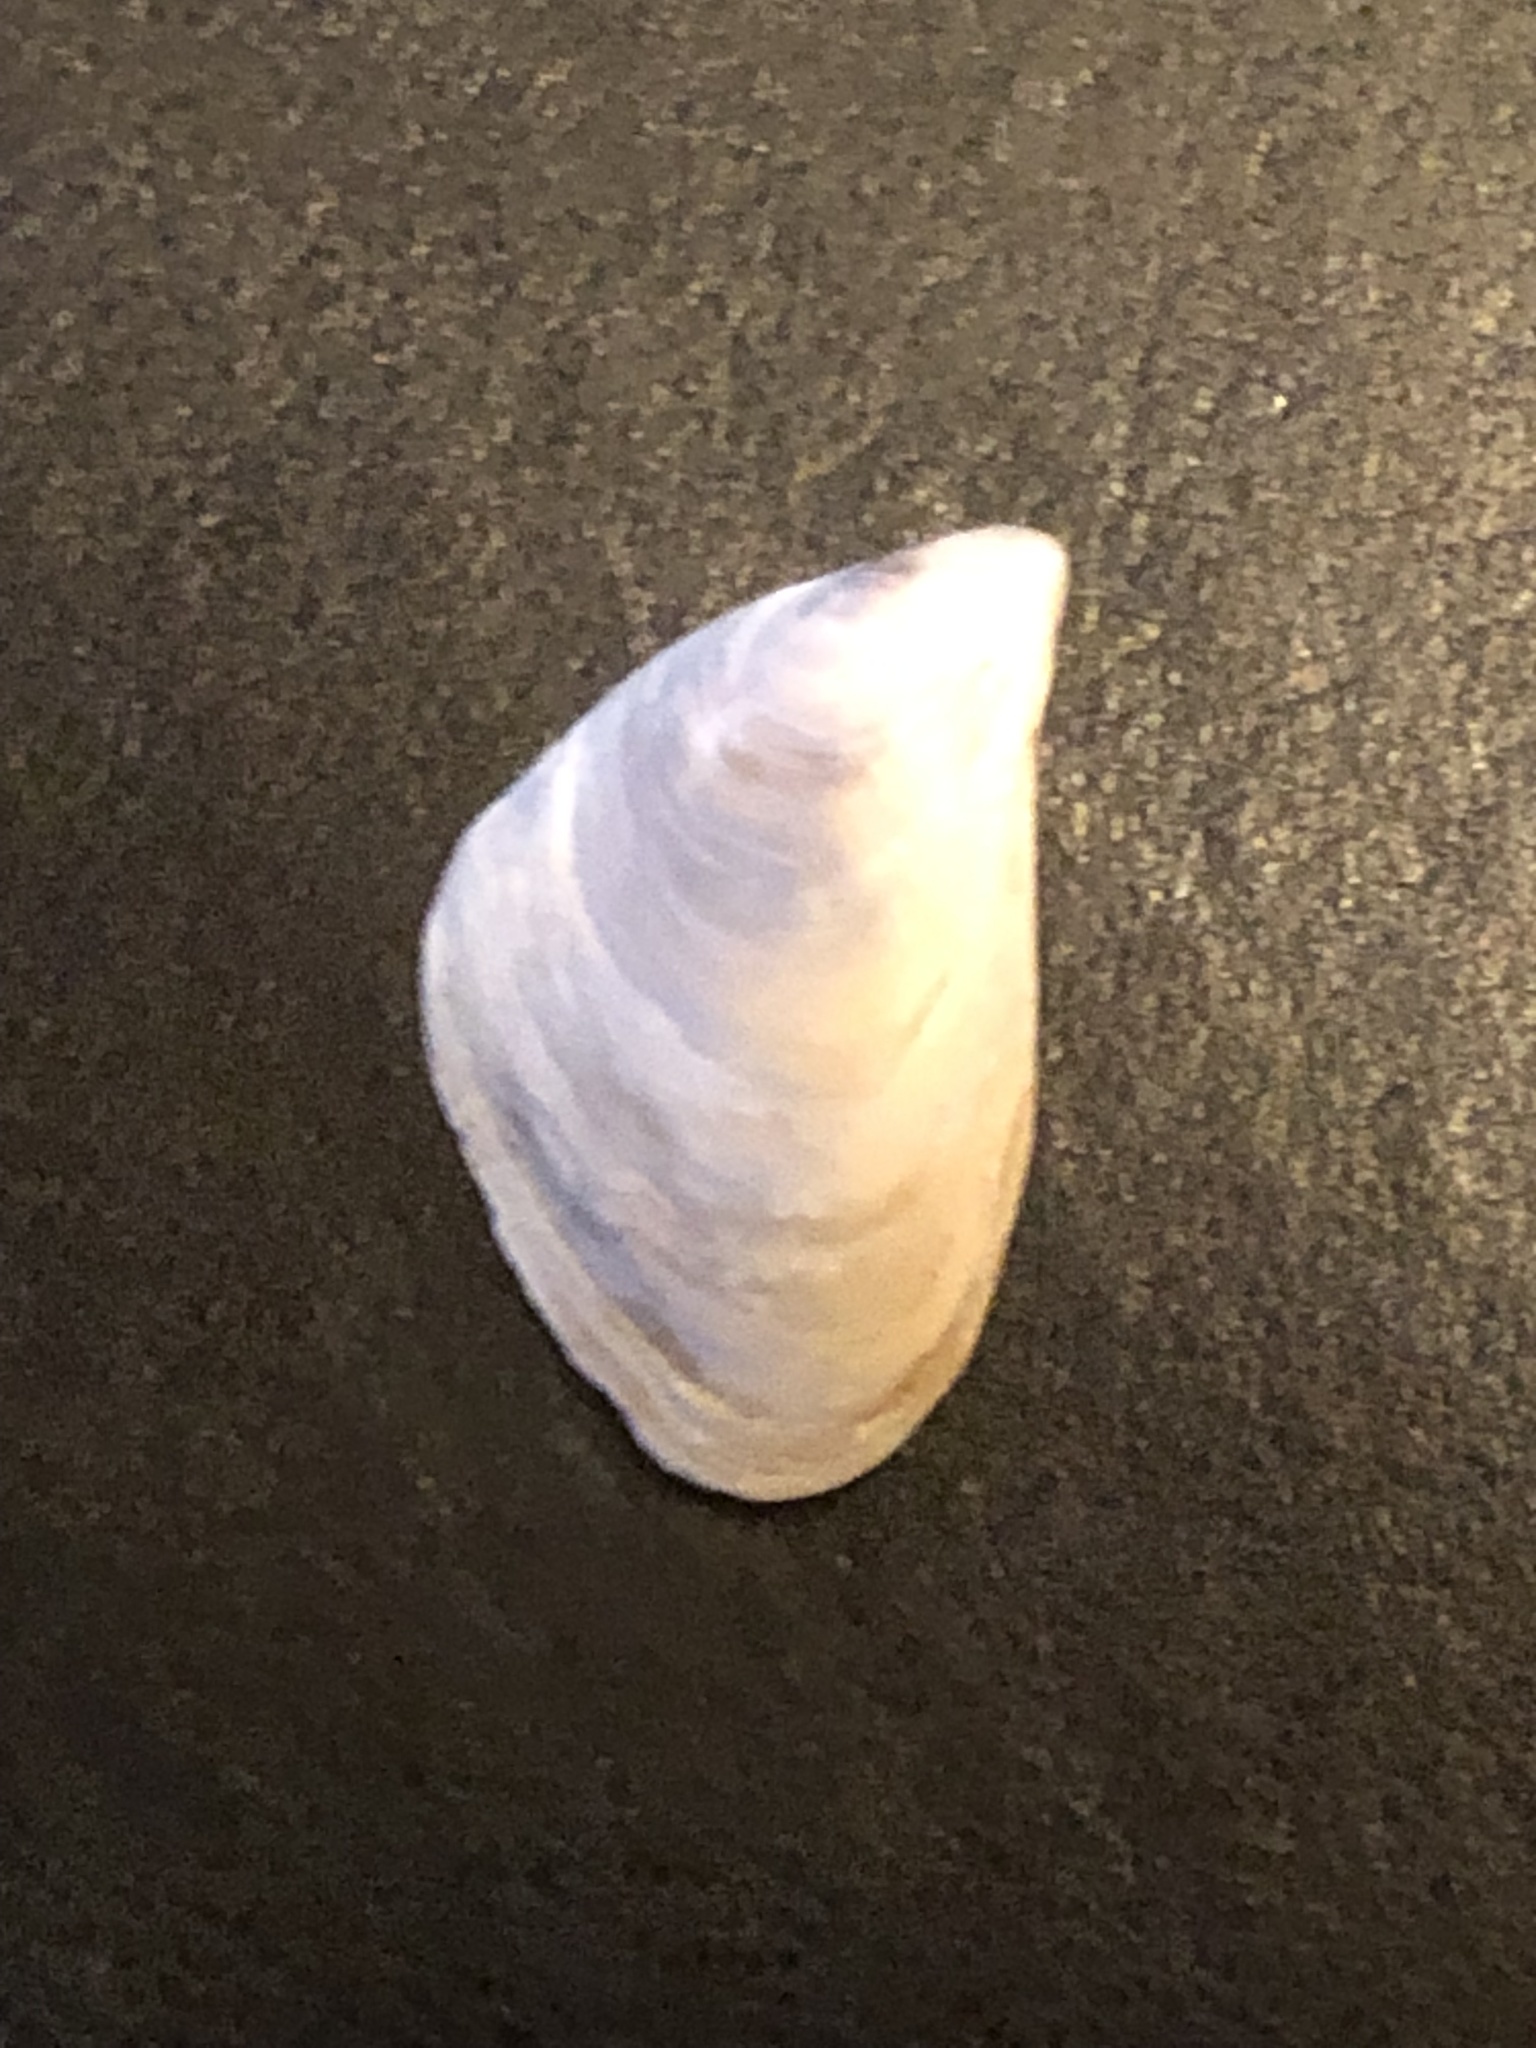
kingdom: Animalia
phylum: Mollusca
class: Bivalvia
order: Myida
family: Dreissenidae
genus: Dreissena
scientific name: Dreissena bugensis
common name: Quagga mussel
